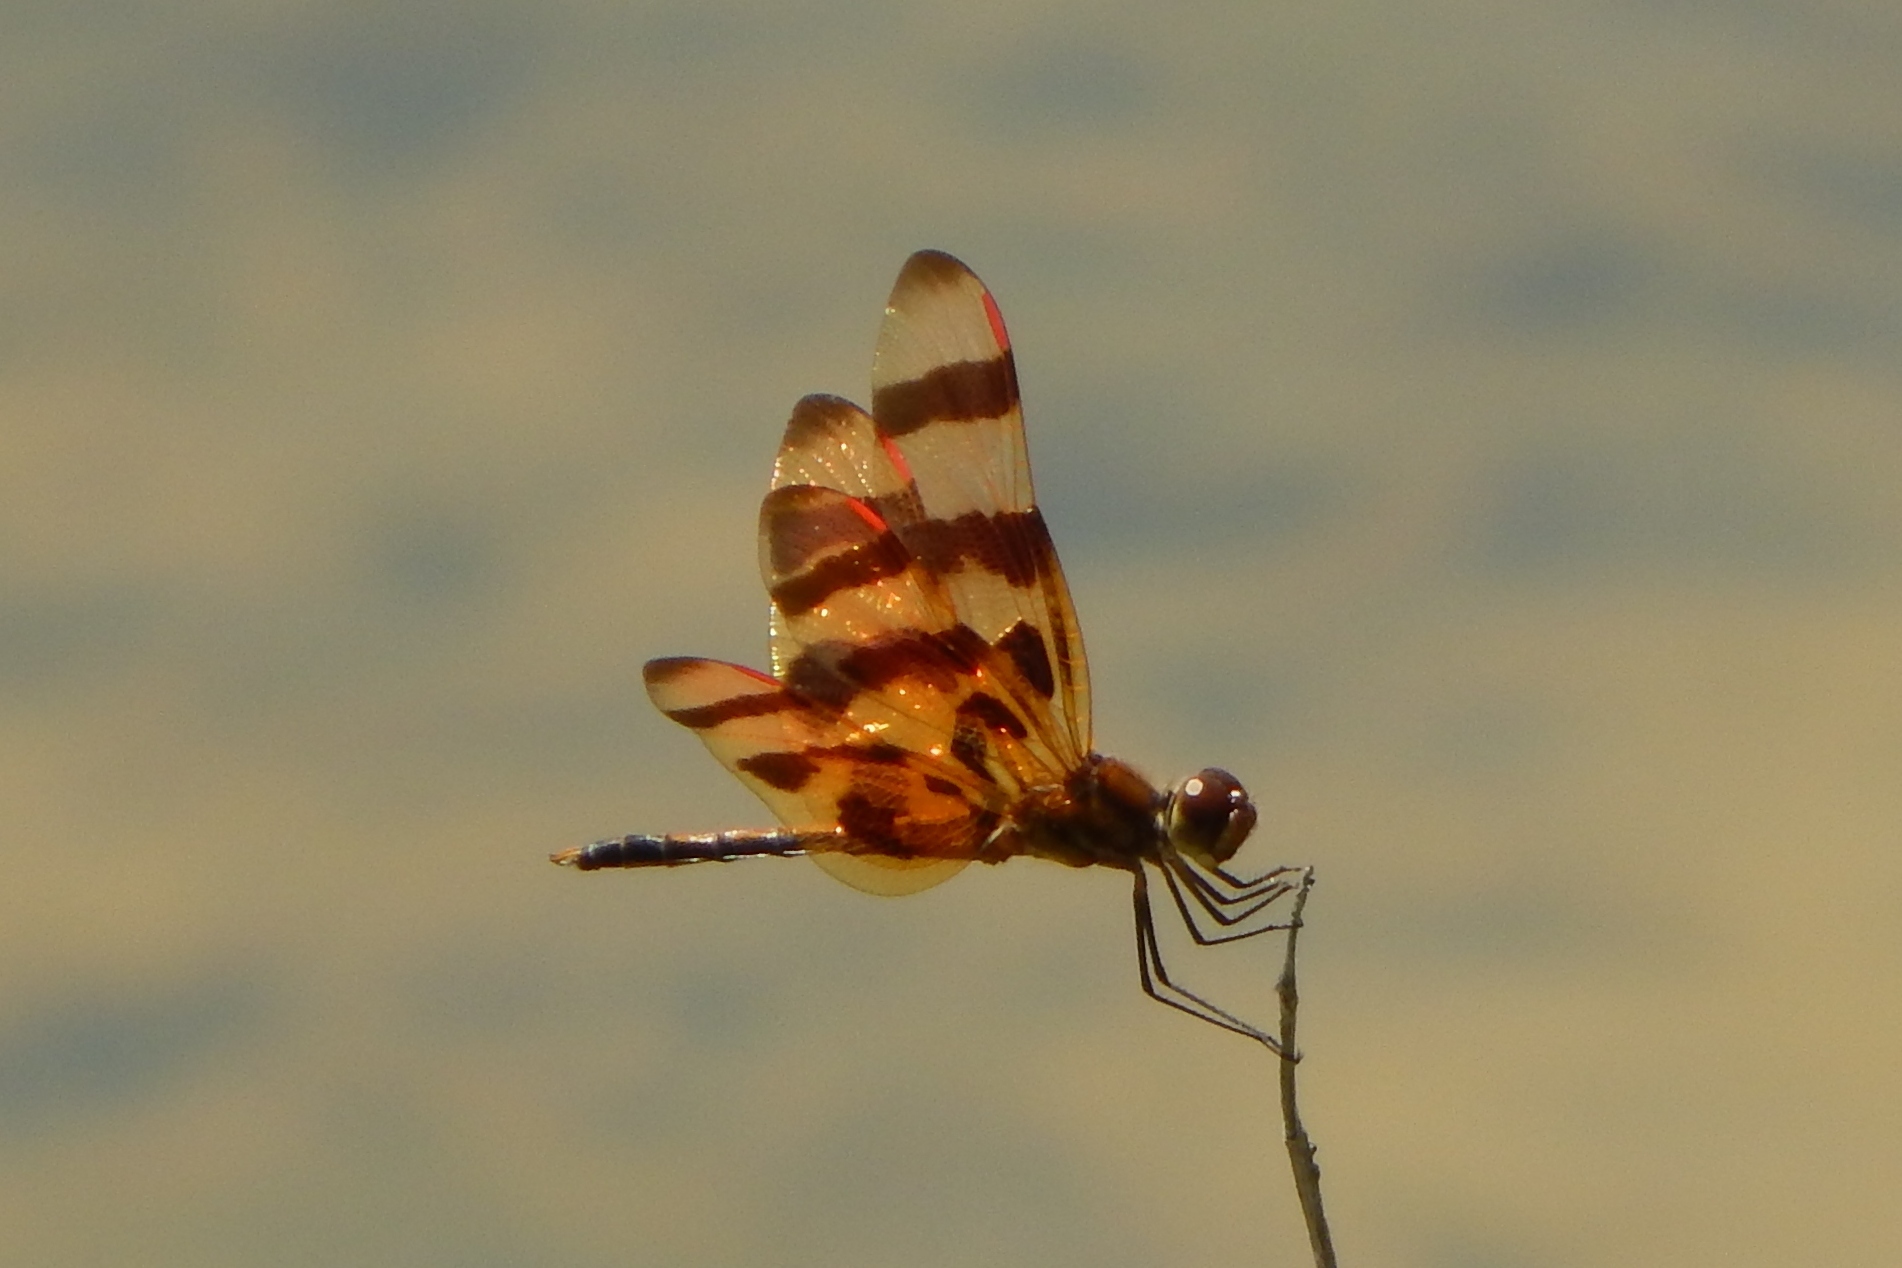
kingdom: Animalia
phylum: Arthropoda
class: Insecta
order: Odonata
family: Libellulidae
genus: Celithemis
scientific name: Celithemis eponina
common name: Halloween pennant
